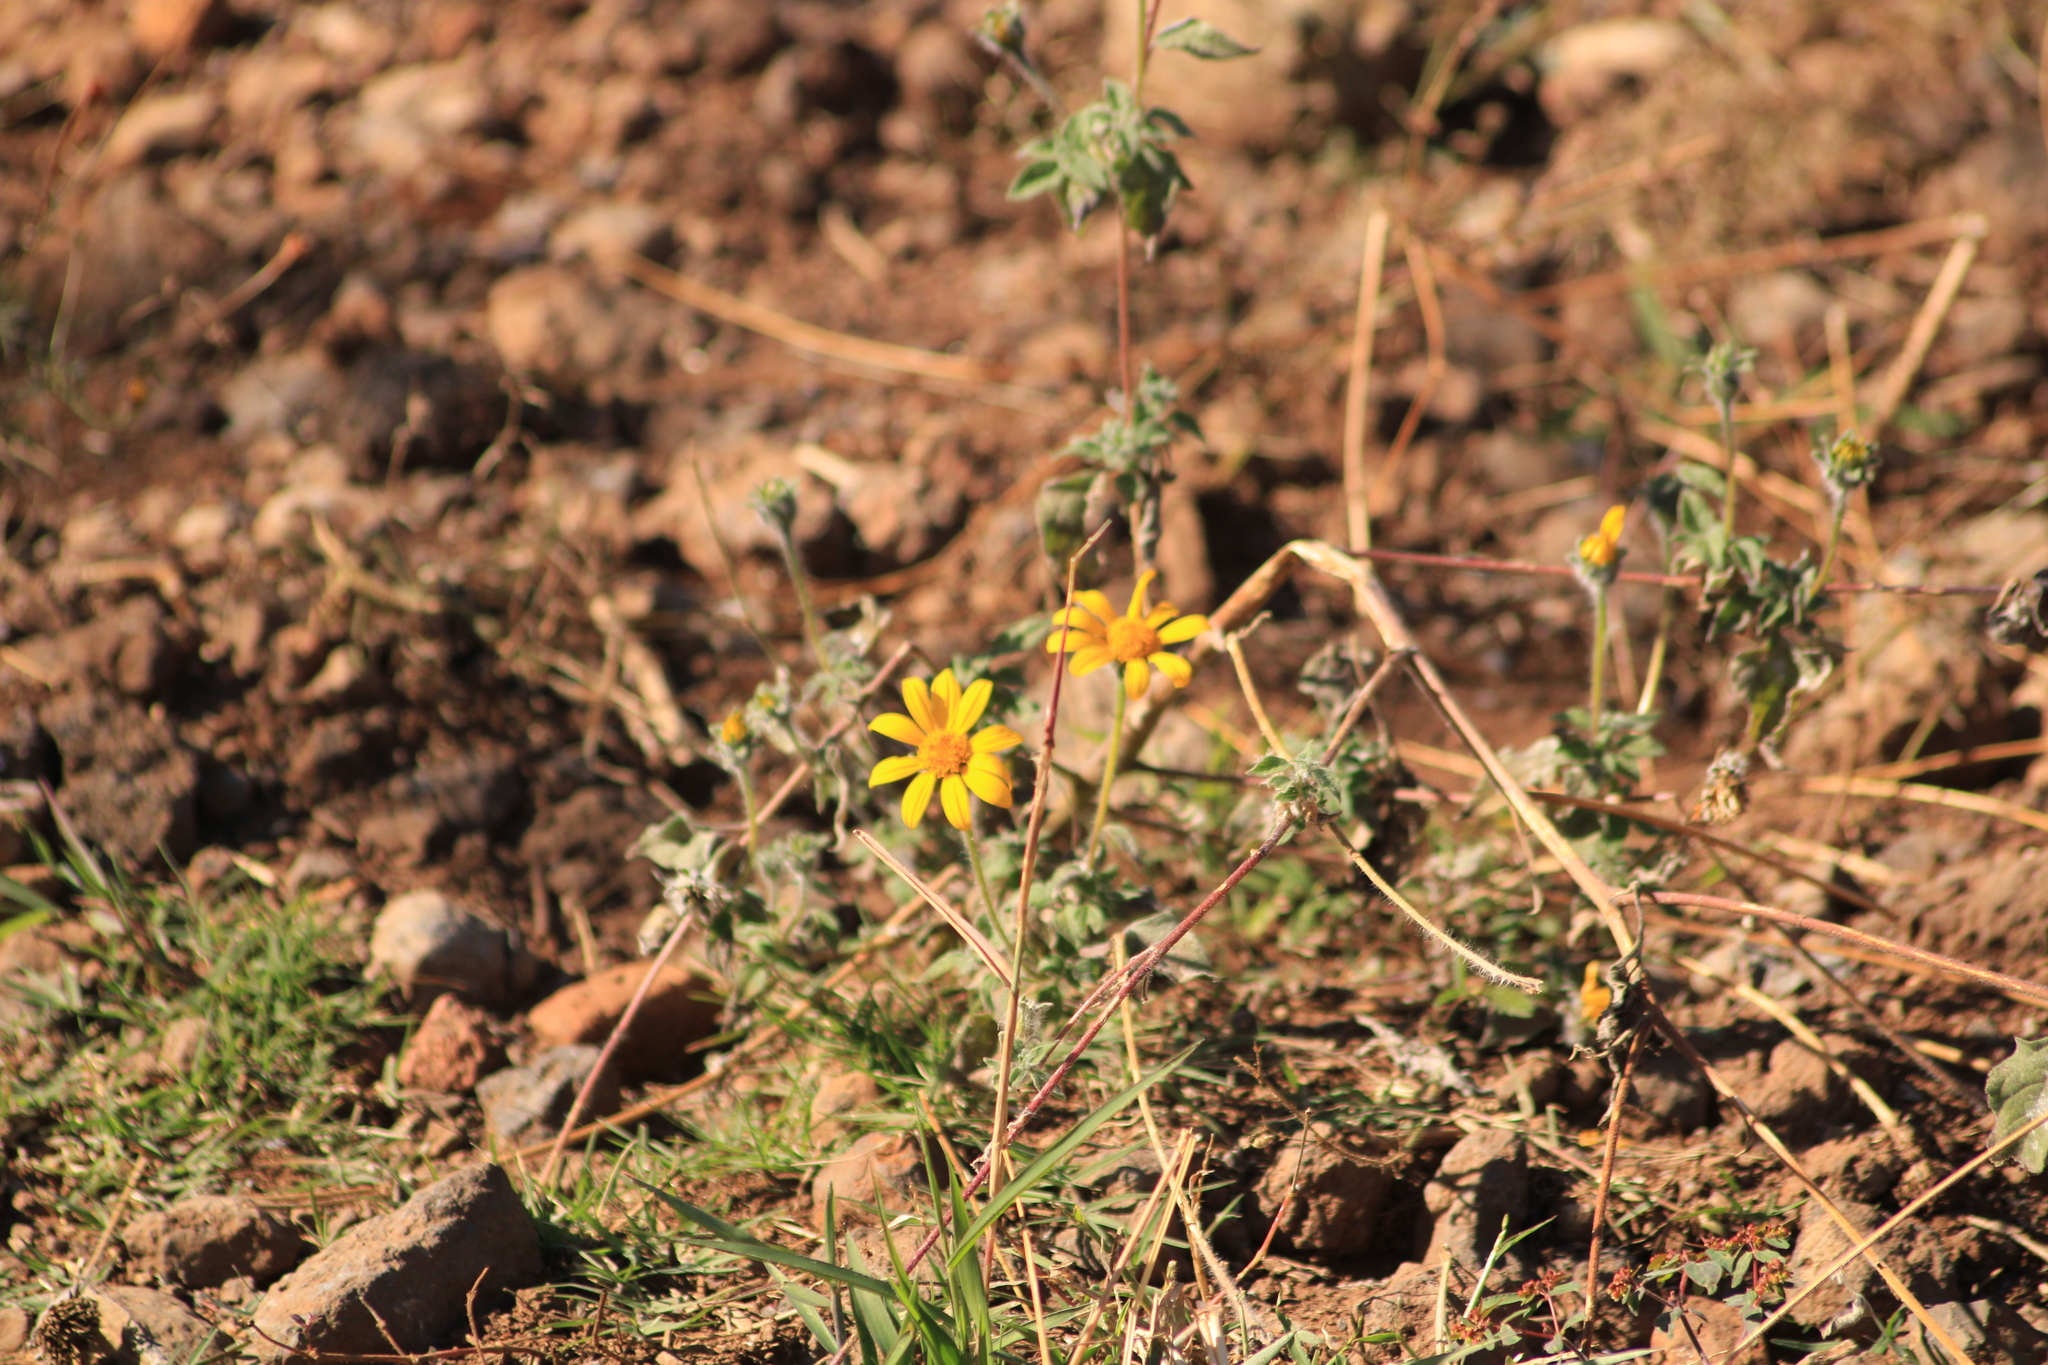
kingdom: Plantae
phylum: Tracheophyta
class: Magnoliopsida
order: Asterales
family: Asteraceae
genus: Tithonia
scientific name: Tithonia tubaeformis
